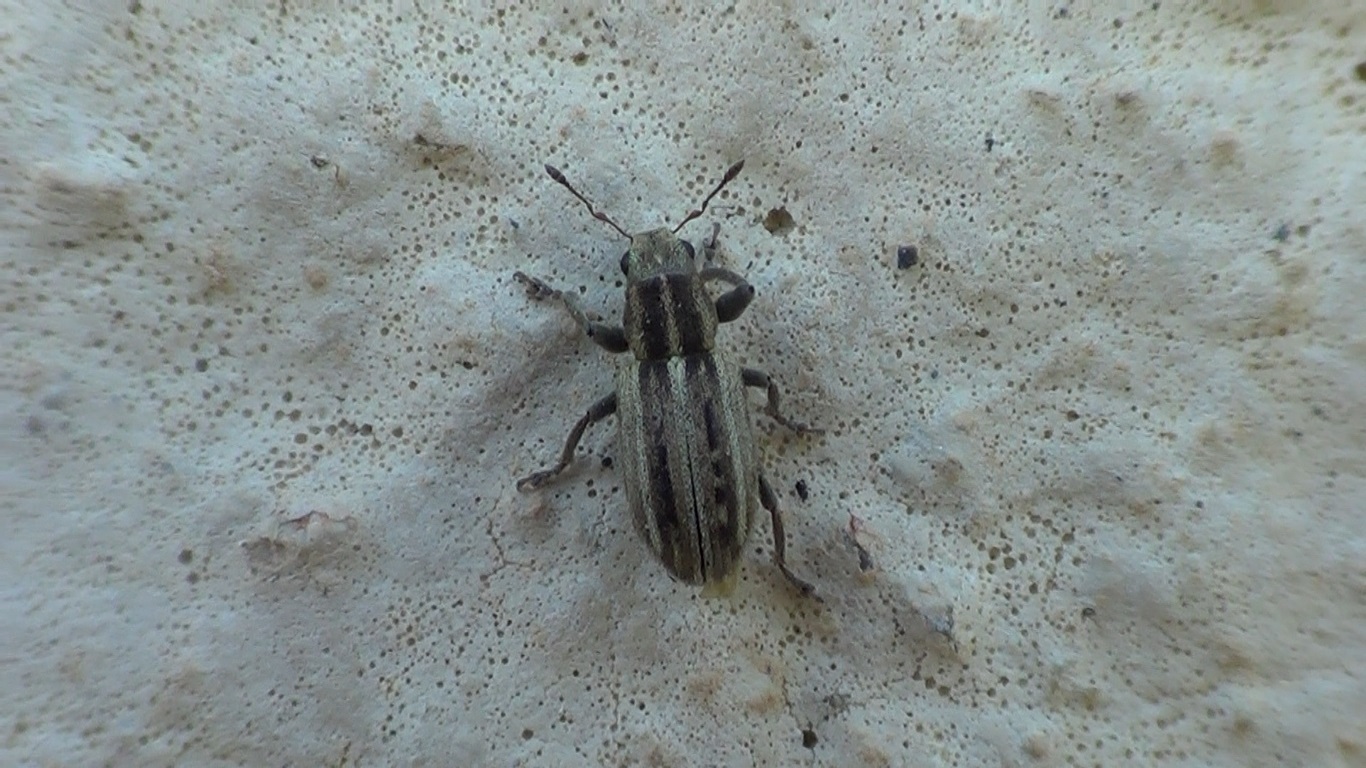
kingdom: Animalia
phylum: Arthropoda
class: Insecta
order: Coleoptera
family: Curculionidae
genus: Sitona
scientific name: Sitona virgatus
